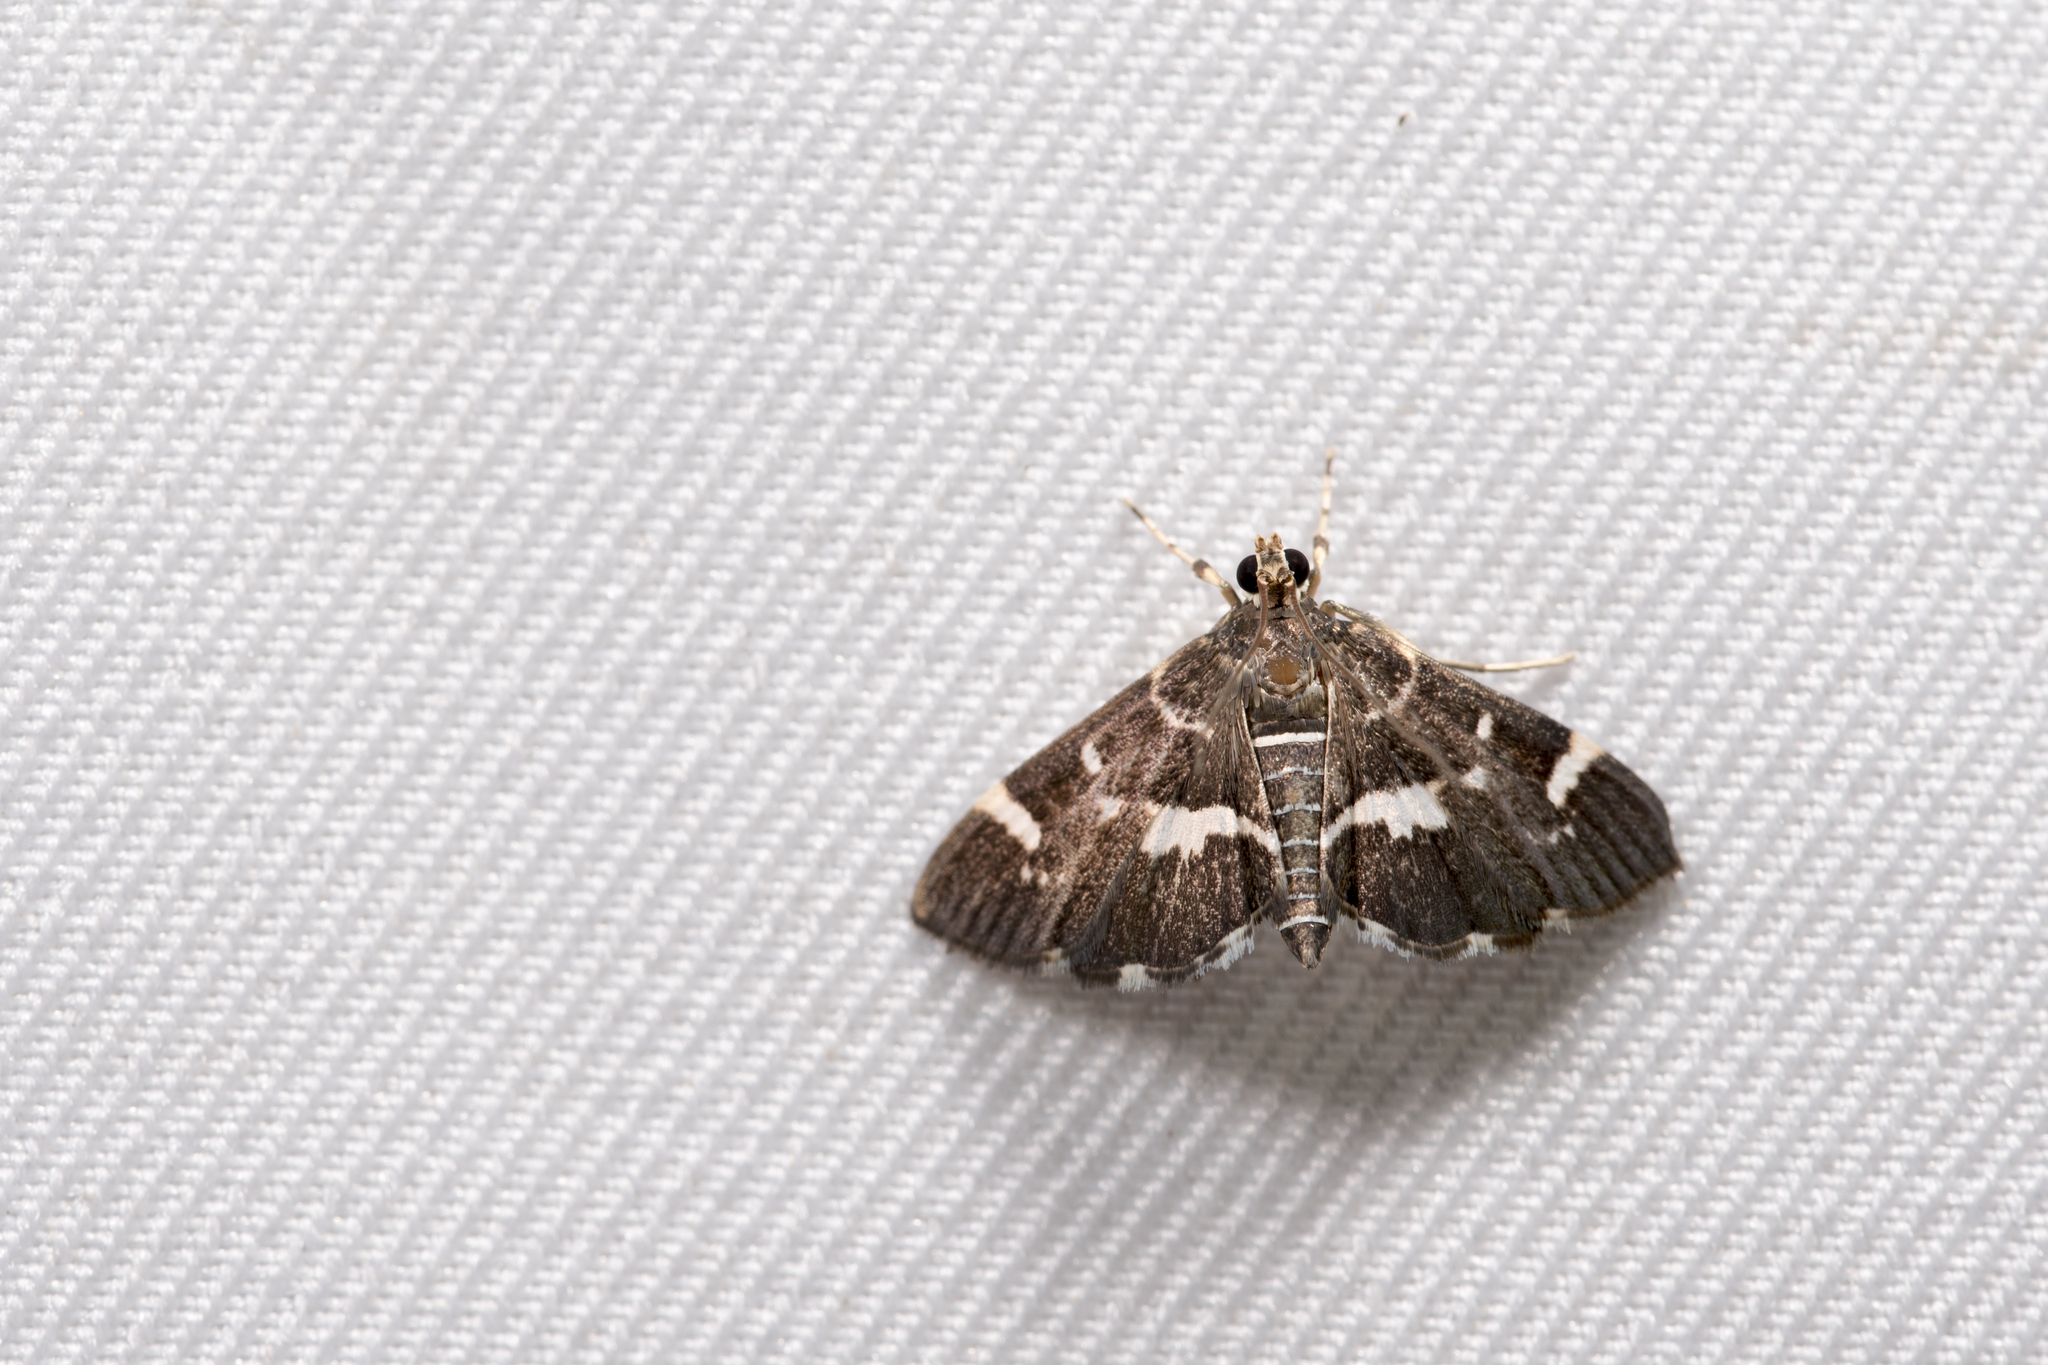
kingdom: Animalia
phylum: Arthropoda
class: Insecta
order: Lepidoptera
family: Crambidae
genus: Hymenia
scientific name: Hymenia perspectalis
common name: Spotted beet webworm
